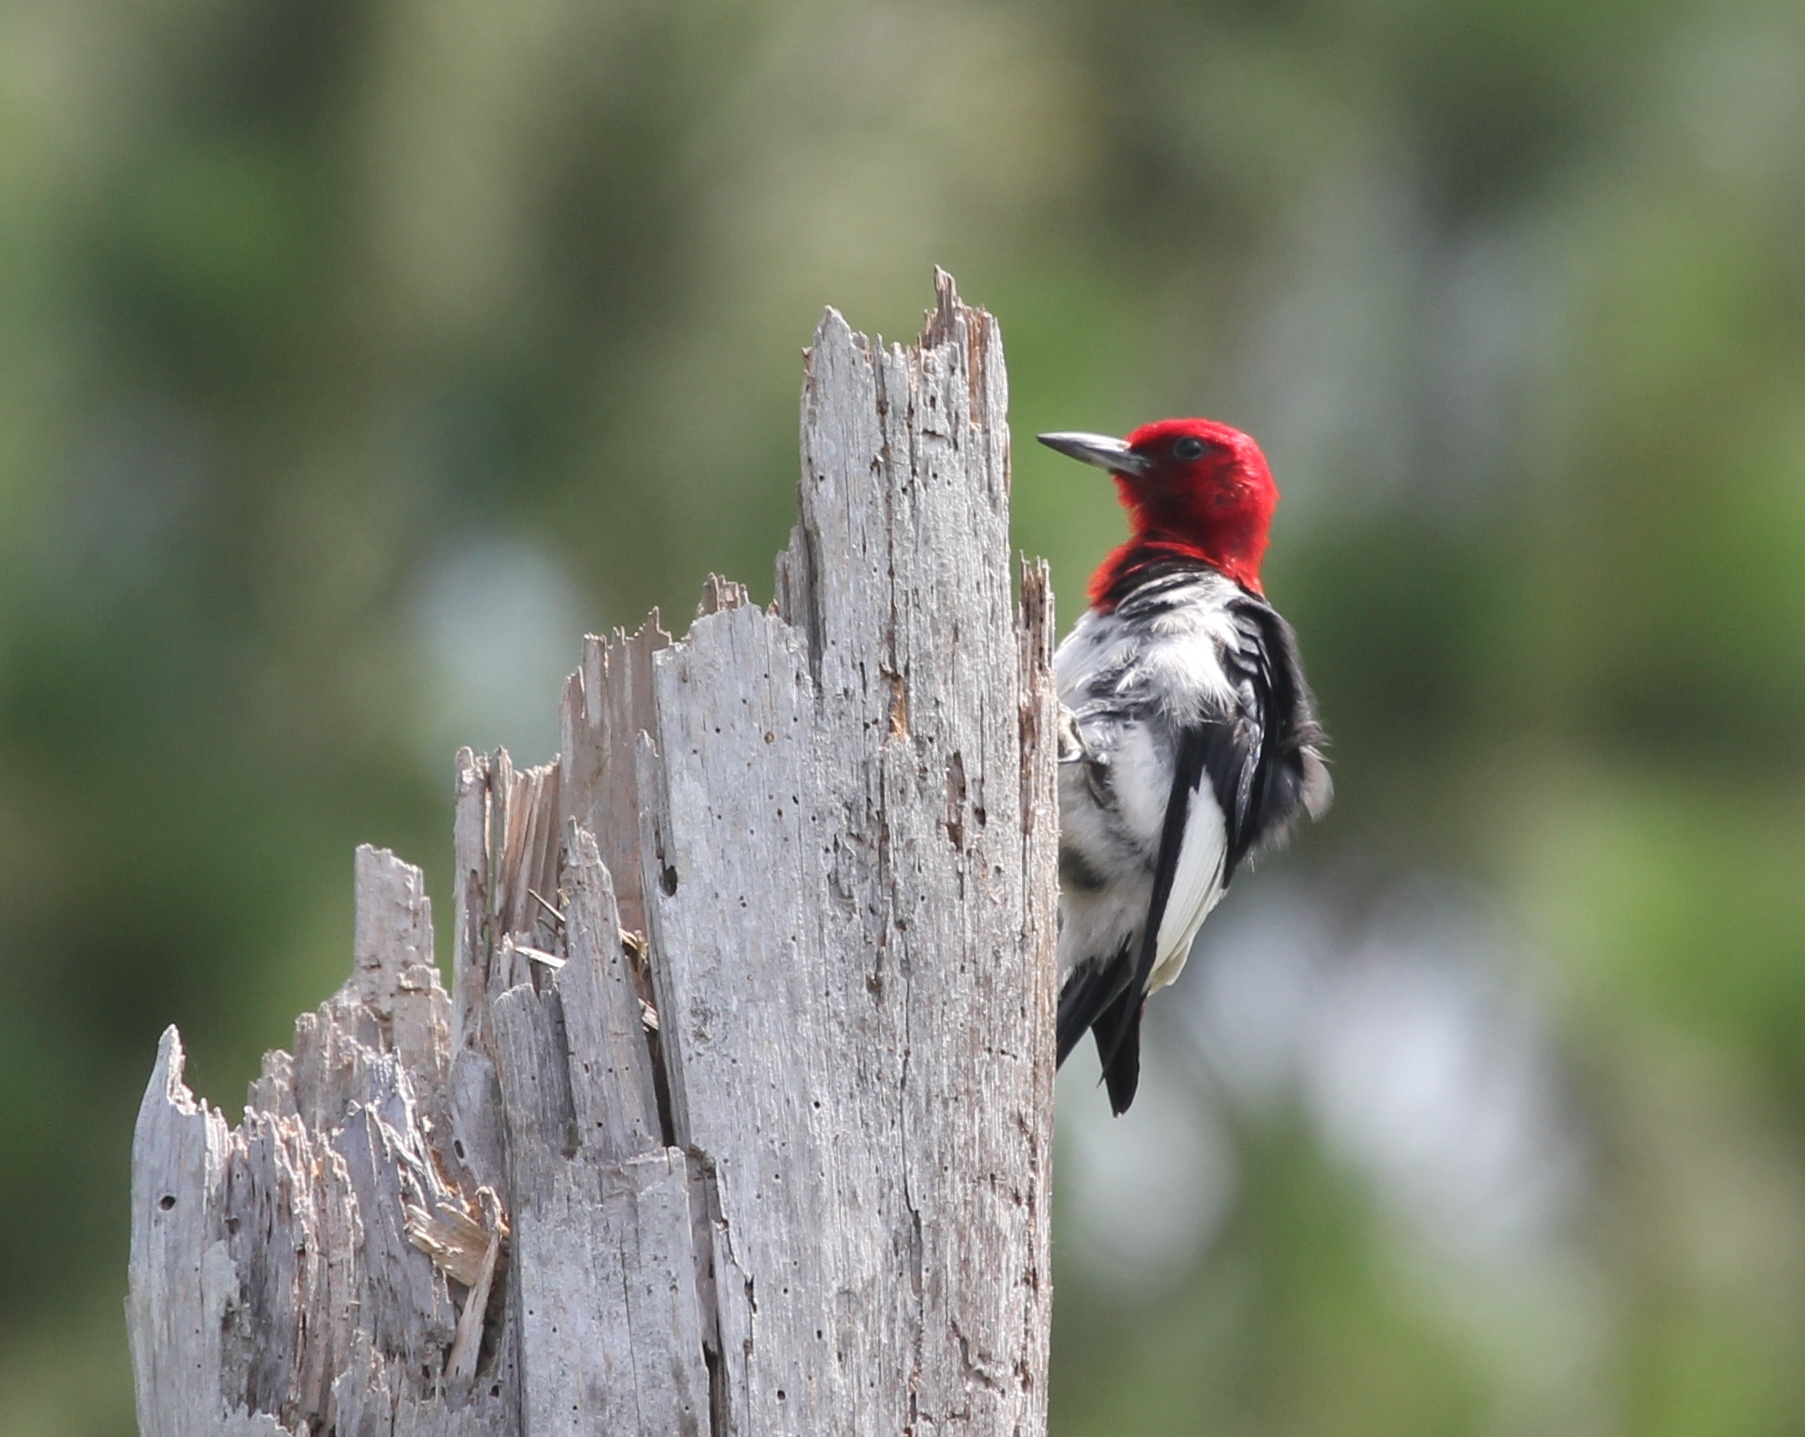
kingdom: Animalia
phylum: Chordata
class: Aves
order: Piciformes
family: Picidae
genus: Melanerpes
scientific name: Melanerpes erythrocephalus
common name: Red-headed woodpecker
